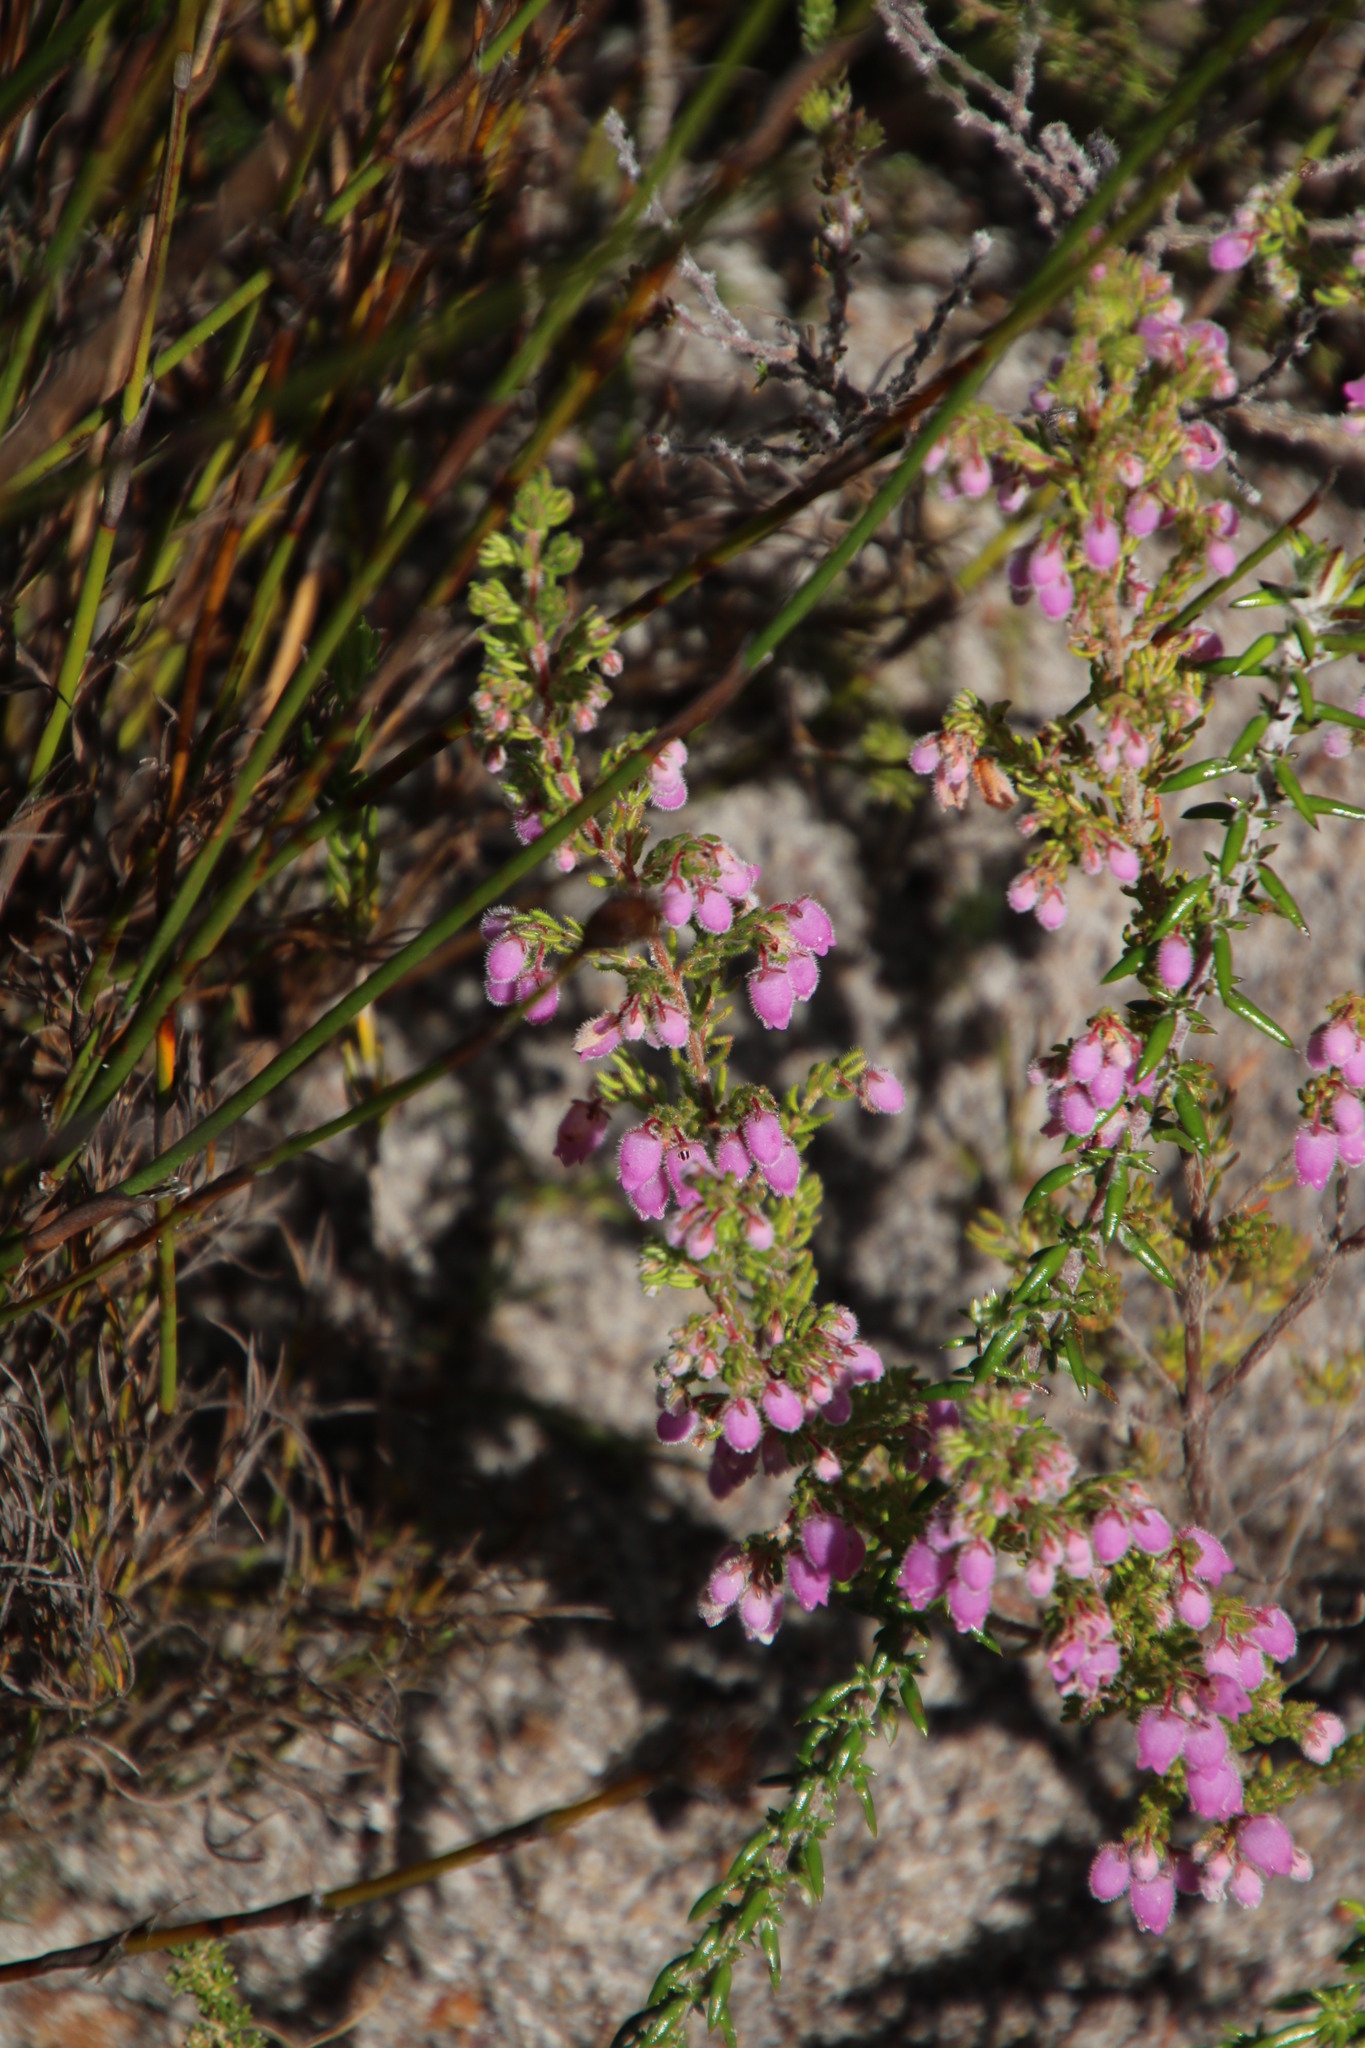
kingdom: Plantae
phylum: Tracheophyta
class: Magnoliopsida
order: Ericales
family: Ericaceae
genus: Erica
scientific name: Erica hirtiflora
